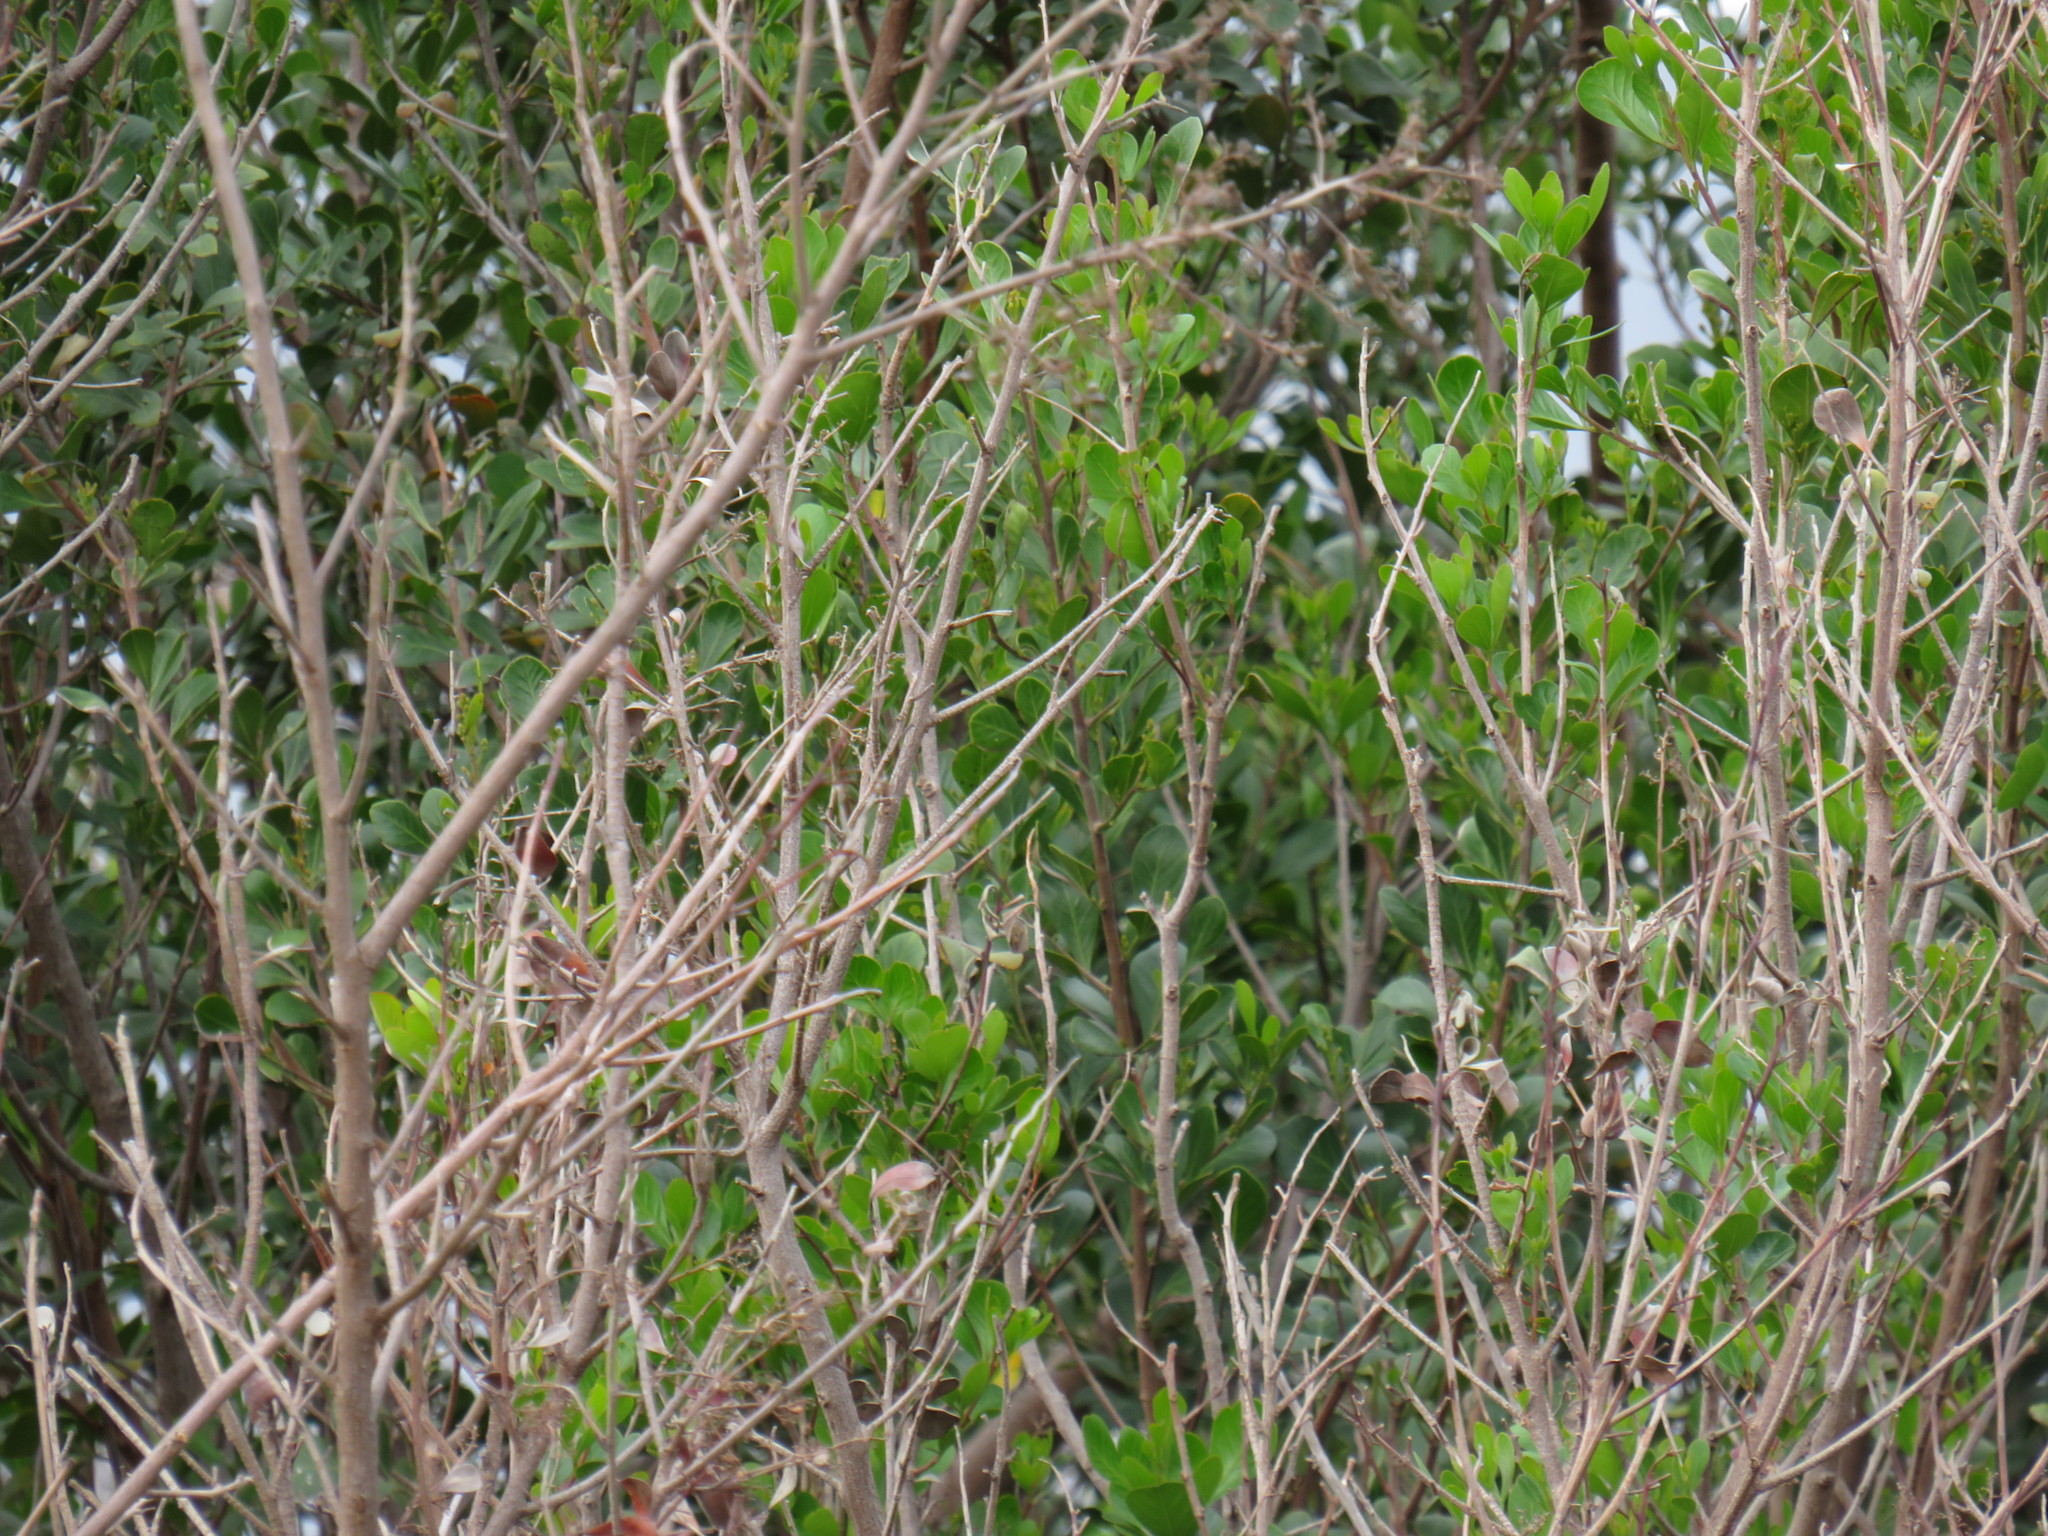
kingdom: Plantae
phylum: Tracheophyta
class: Magnoliopsida
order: Sapindales
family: Anacardiaceae
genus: Searsia
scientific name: Searsia lucida
